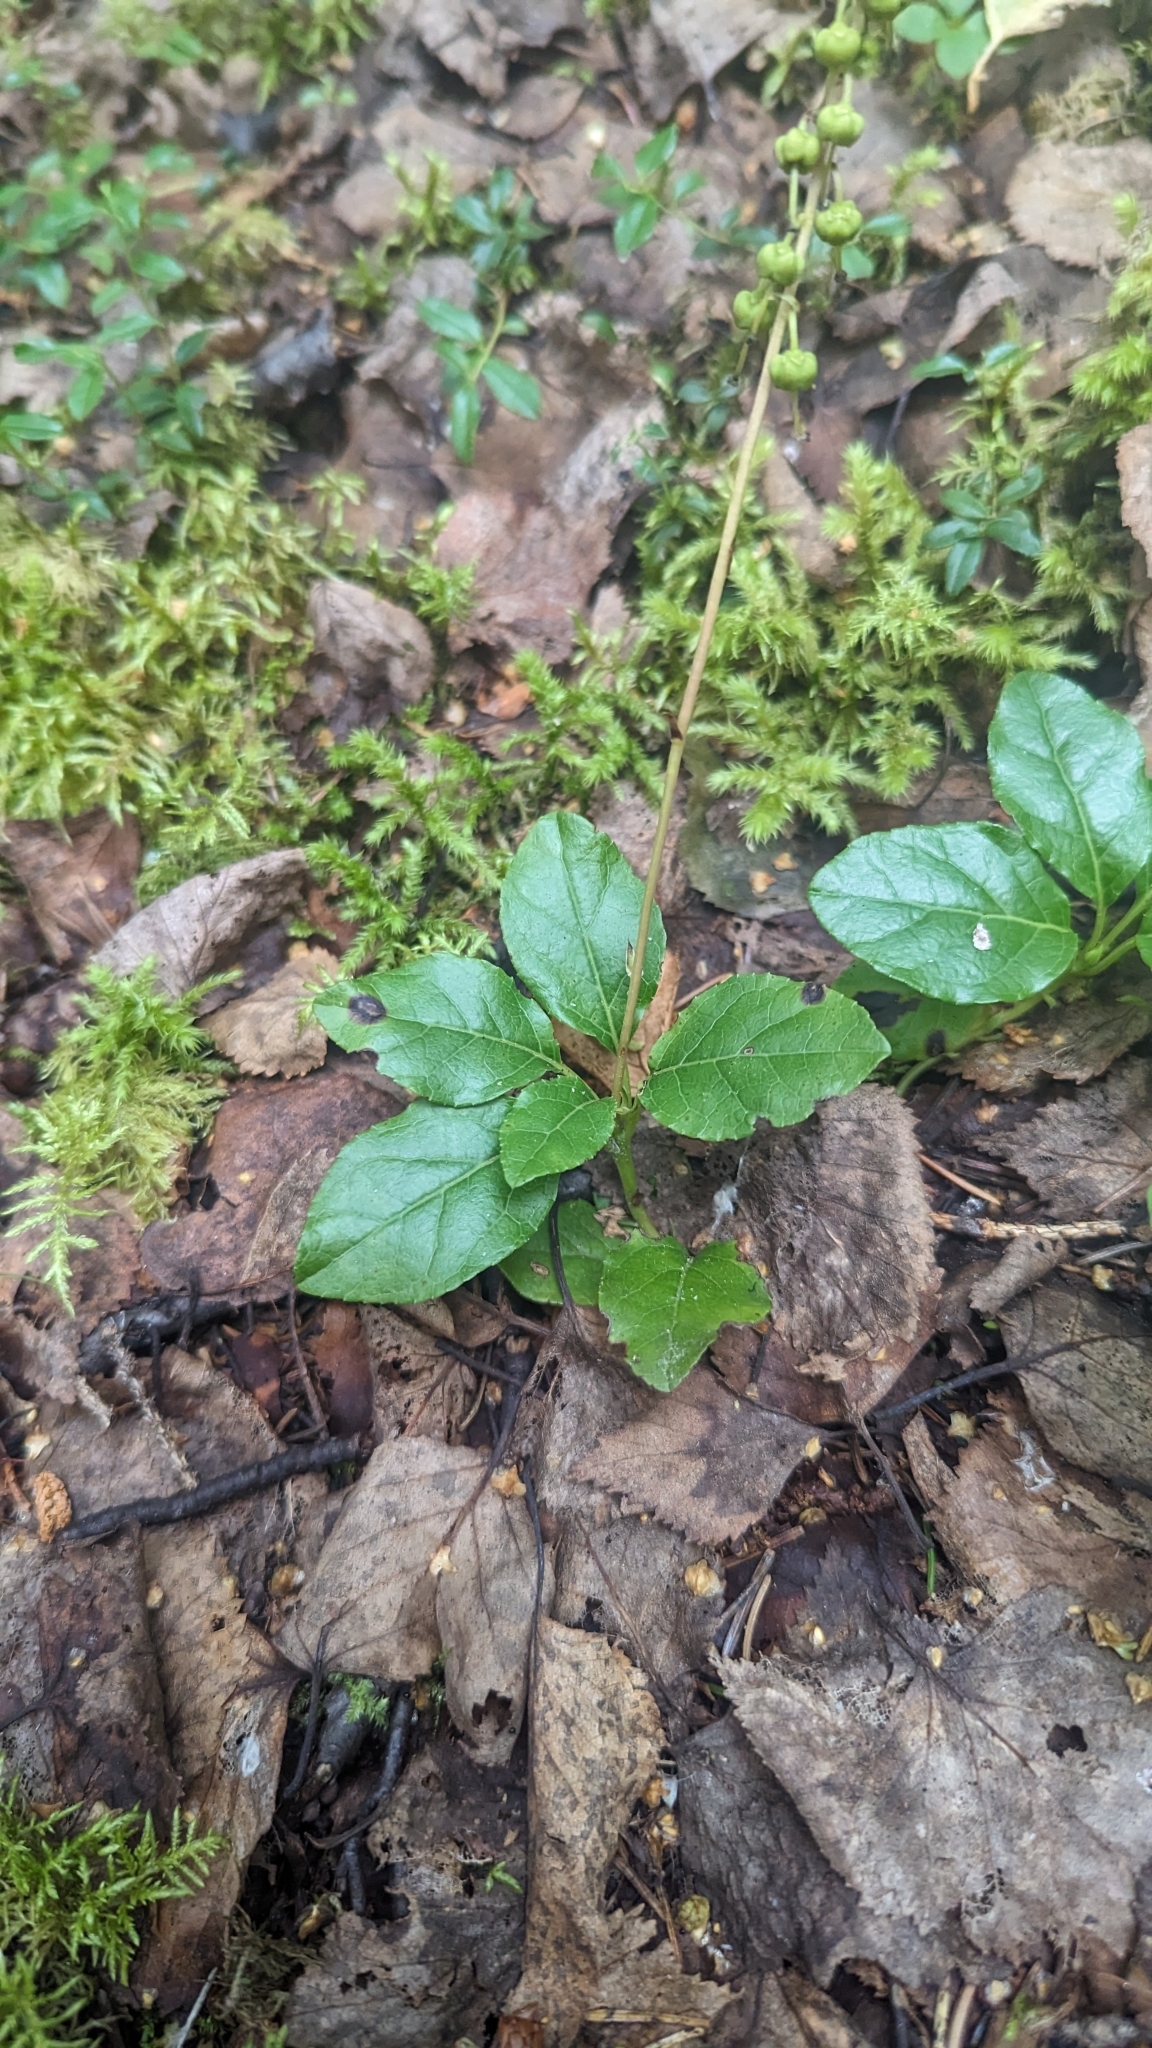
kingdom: Plantae
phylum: Tracheophyta
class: Magnoliopsida
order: Ericales
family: Ericaceae
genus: Orthilia
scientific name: Orthilia secunda
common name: One-sided orthilia
